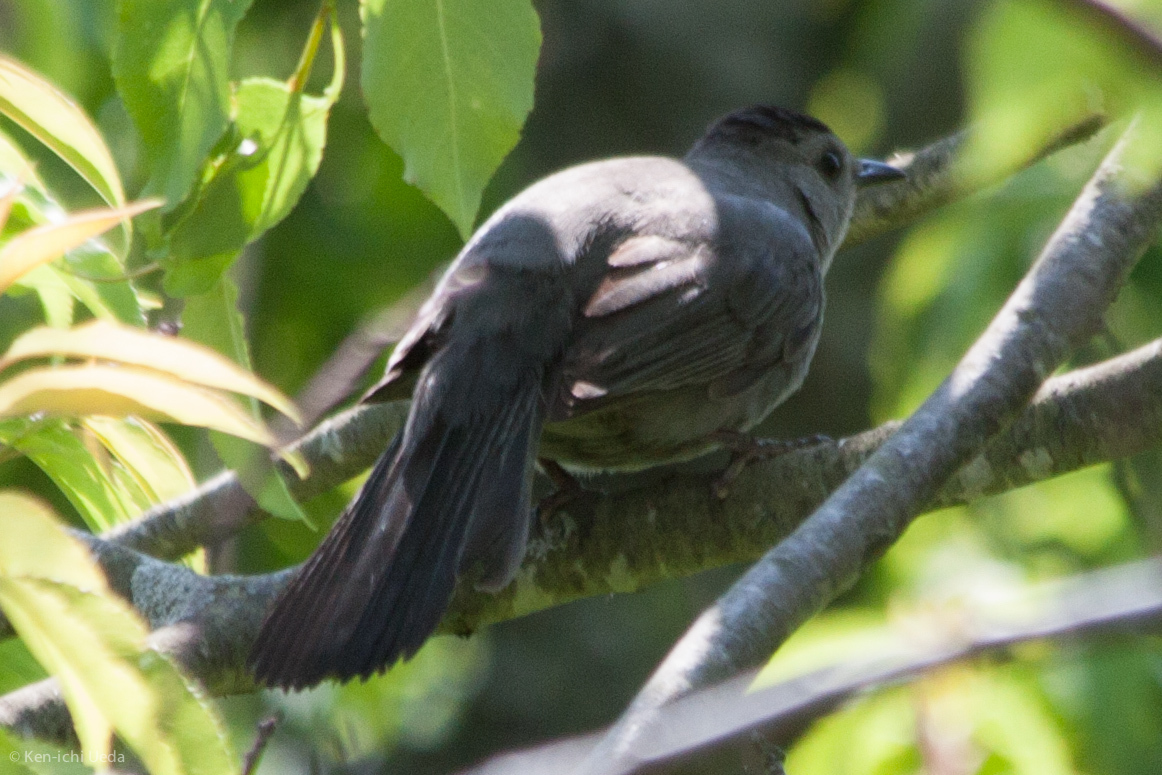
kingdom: Animalia
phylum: Chordata
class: Aves
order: Passeriformes
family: Mimidae
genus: Dumetella
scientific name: Dumetella carolinensis
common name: Gray catbird
